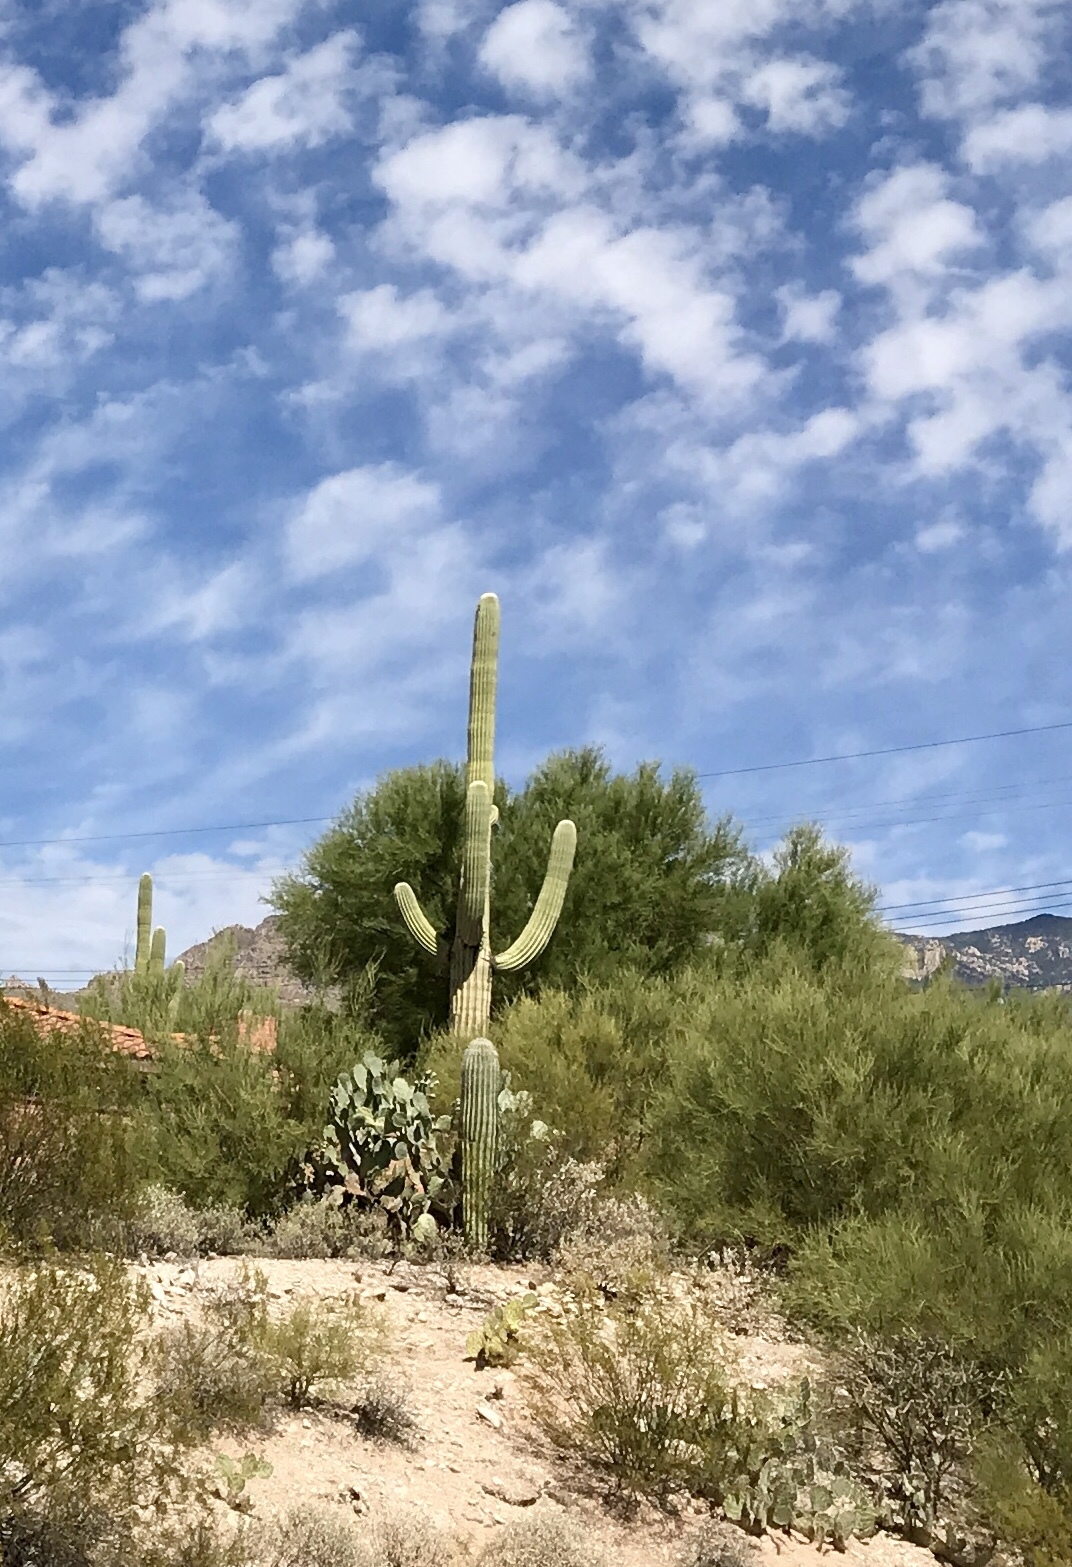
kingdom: Plantae
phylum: Tracheophyta
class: Magnoliopsida
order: Caryophyllales
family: Cactaceae
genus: Carnegiea
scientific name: Carnegiea gigantea
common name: Saguaro
